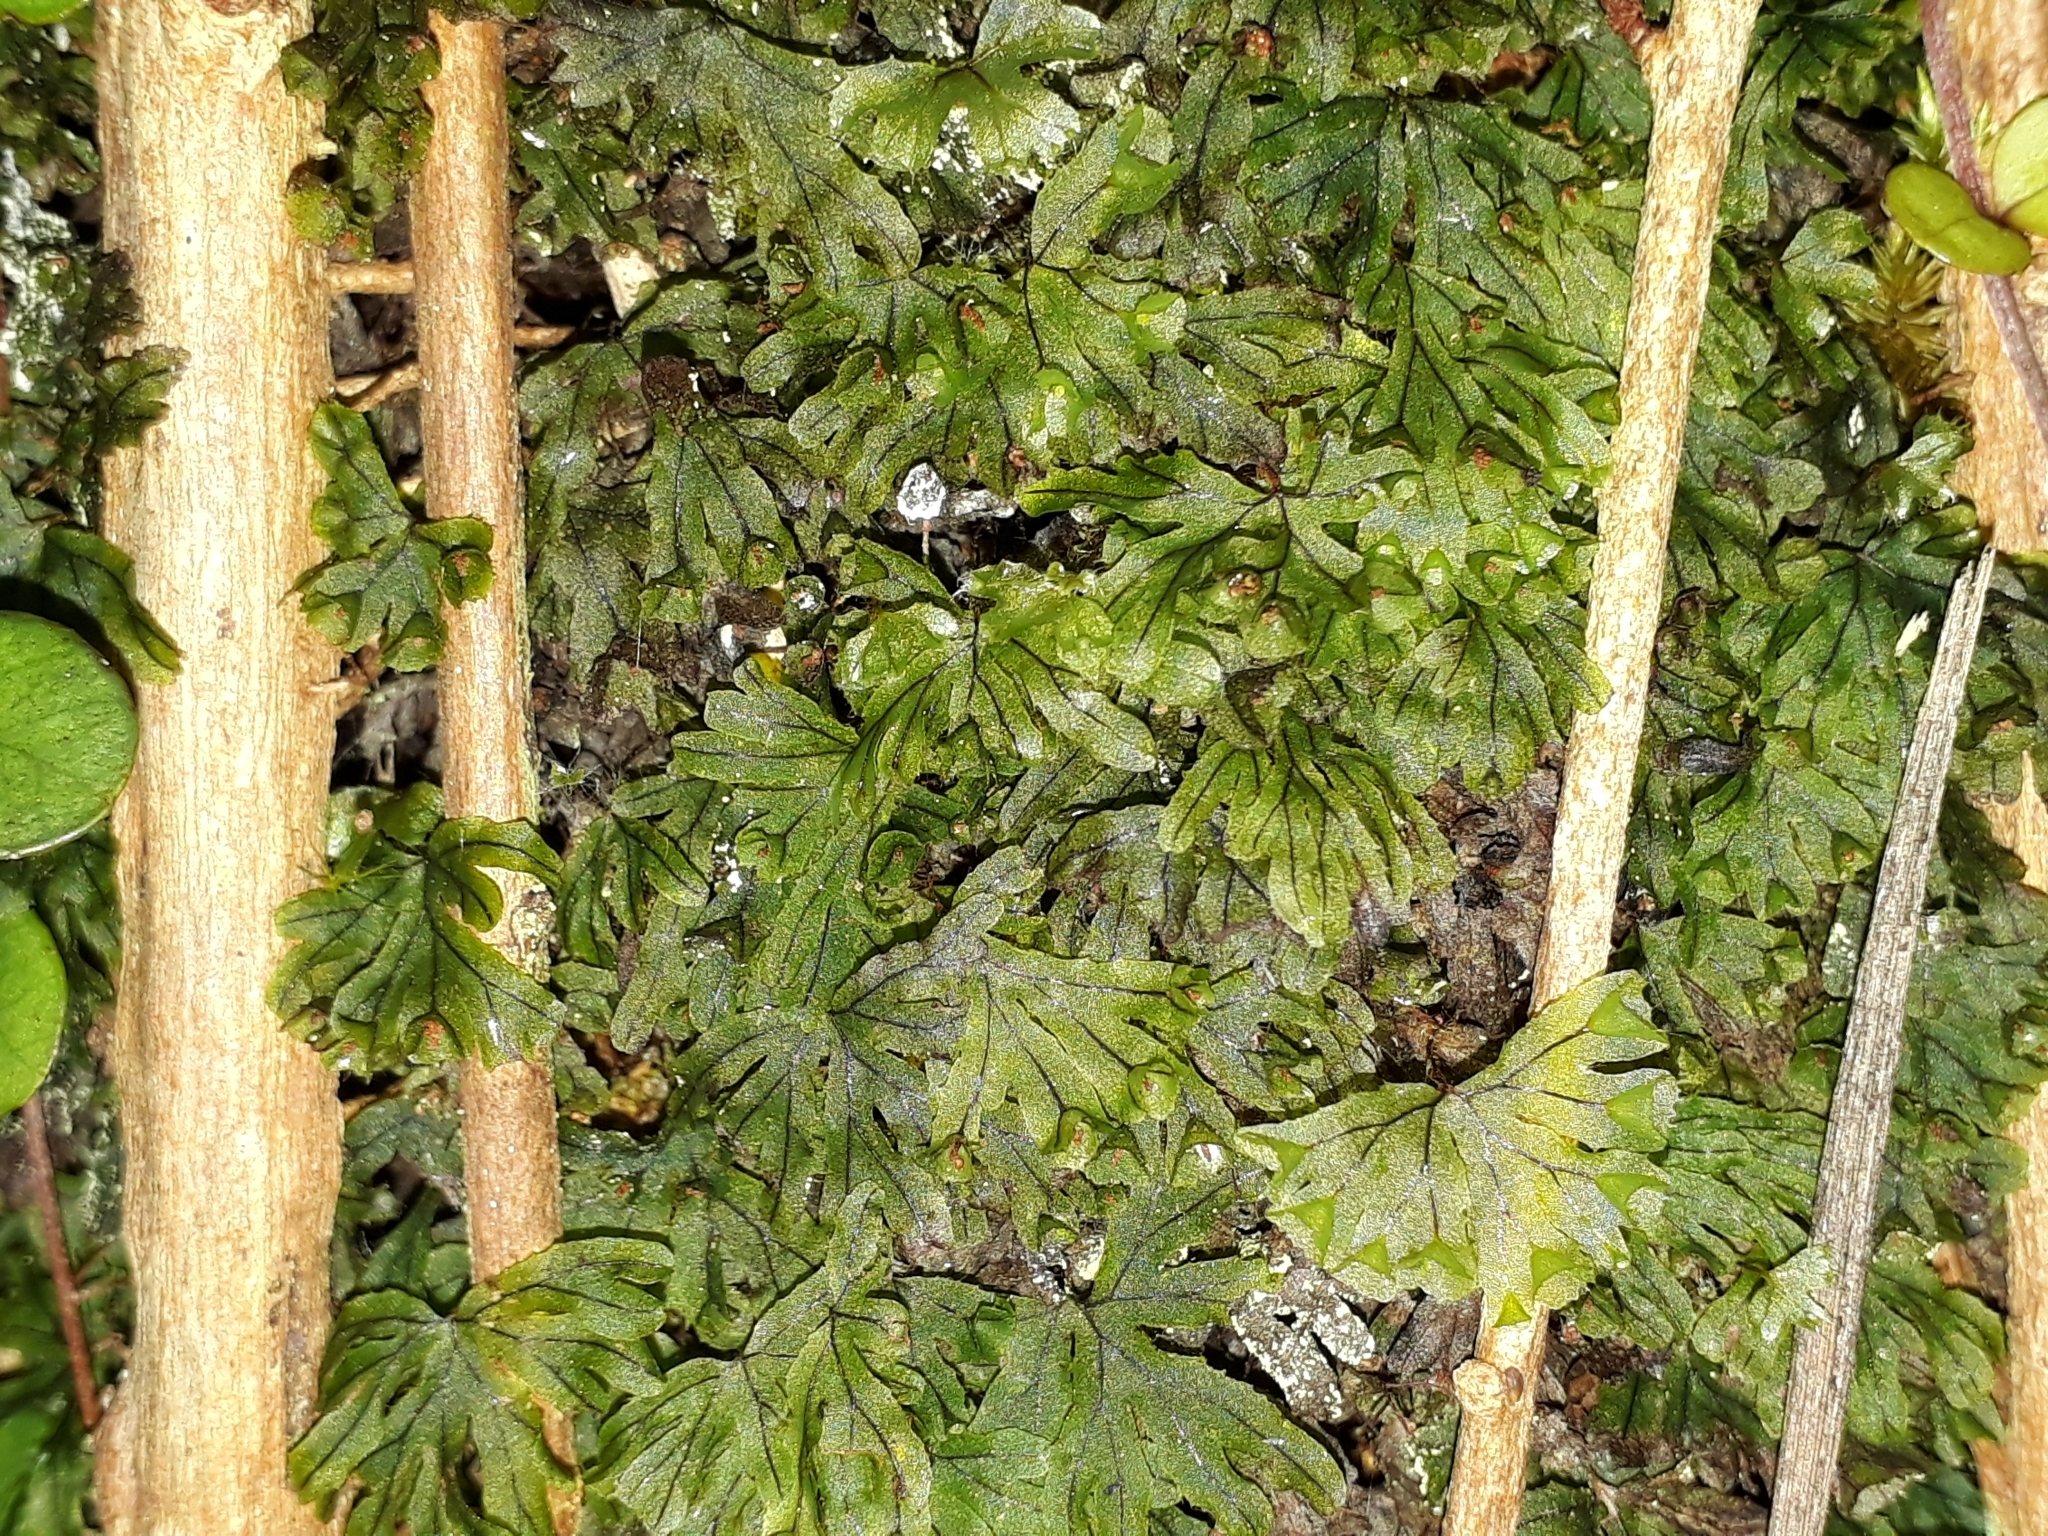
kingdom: Plantae
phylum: Tracheophyta
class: Polypodiopsida
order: Hymenophyllales
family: Hymenophyllaceae
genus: Hymenophyllum
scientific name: Hymenophyllum lyallii
